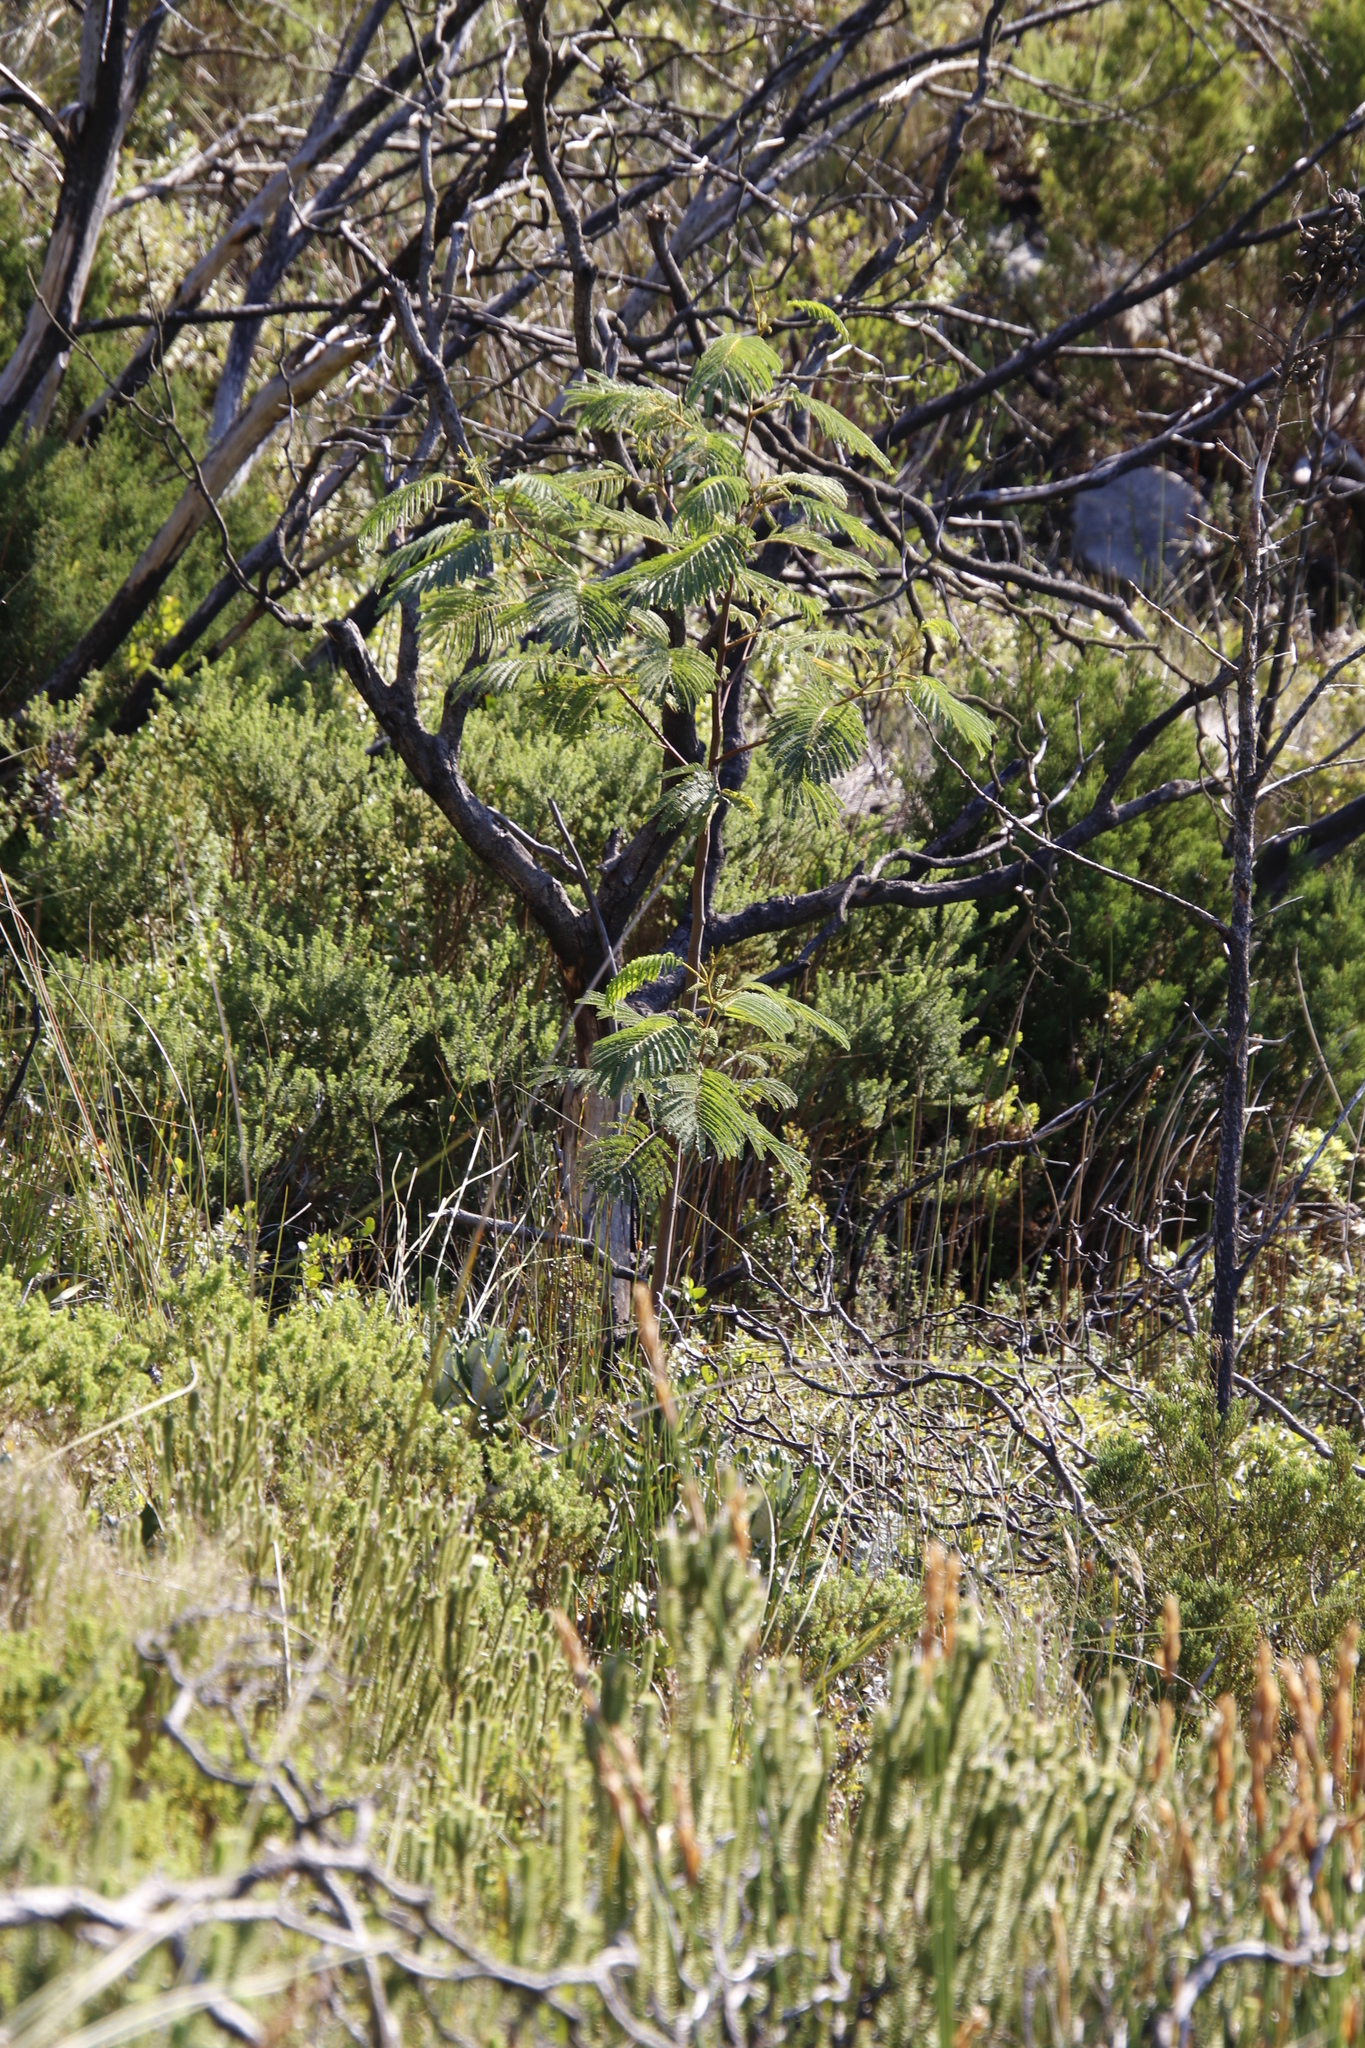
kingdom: Plantae
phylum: Tracheophyta
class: Magnoliopsida
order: Fabales
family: Fabaceae
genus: Paraserianthes
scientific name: Paraserianthes lophantha
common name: Plume albizia
